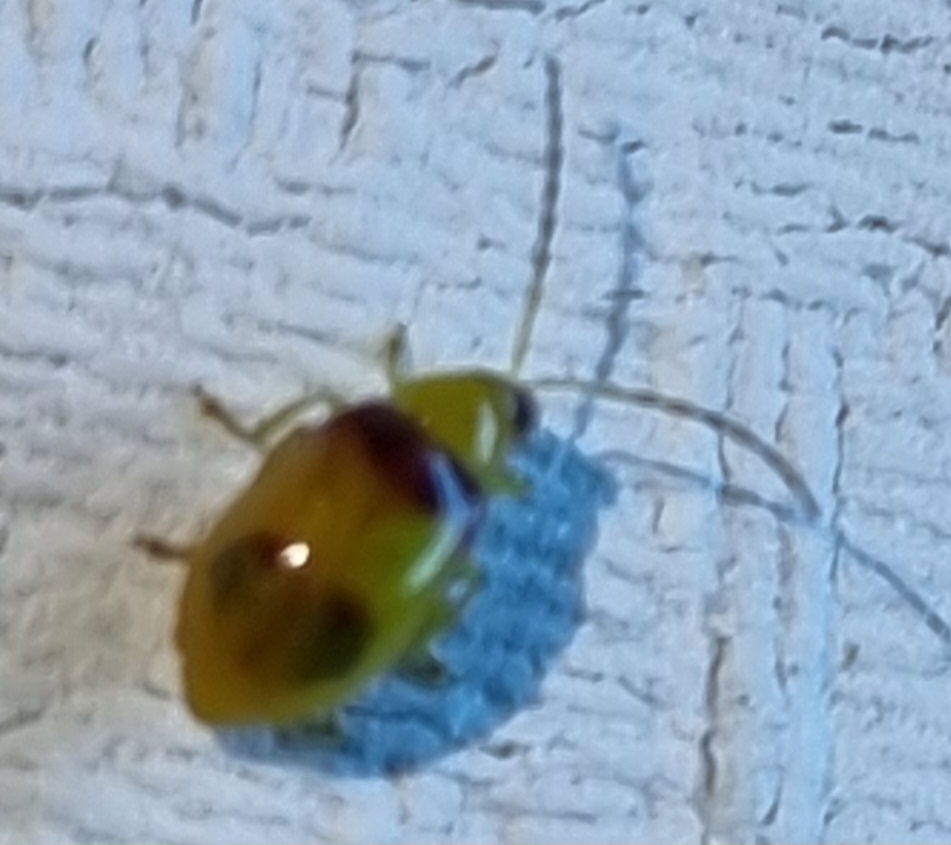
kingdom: Animalia
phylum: Arthropoda
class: Insecta
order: Coleoptera
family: Chrysomelidae
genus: Monolepta
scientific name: Monolepta
